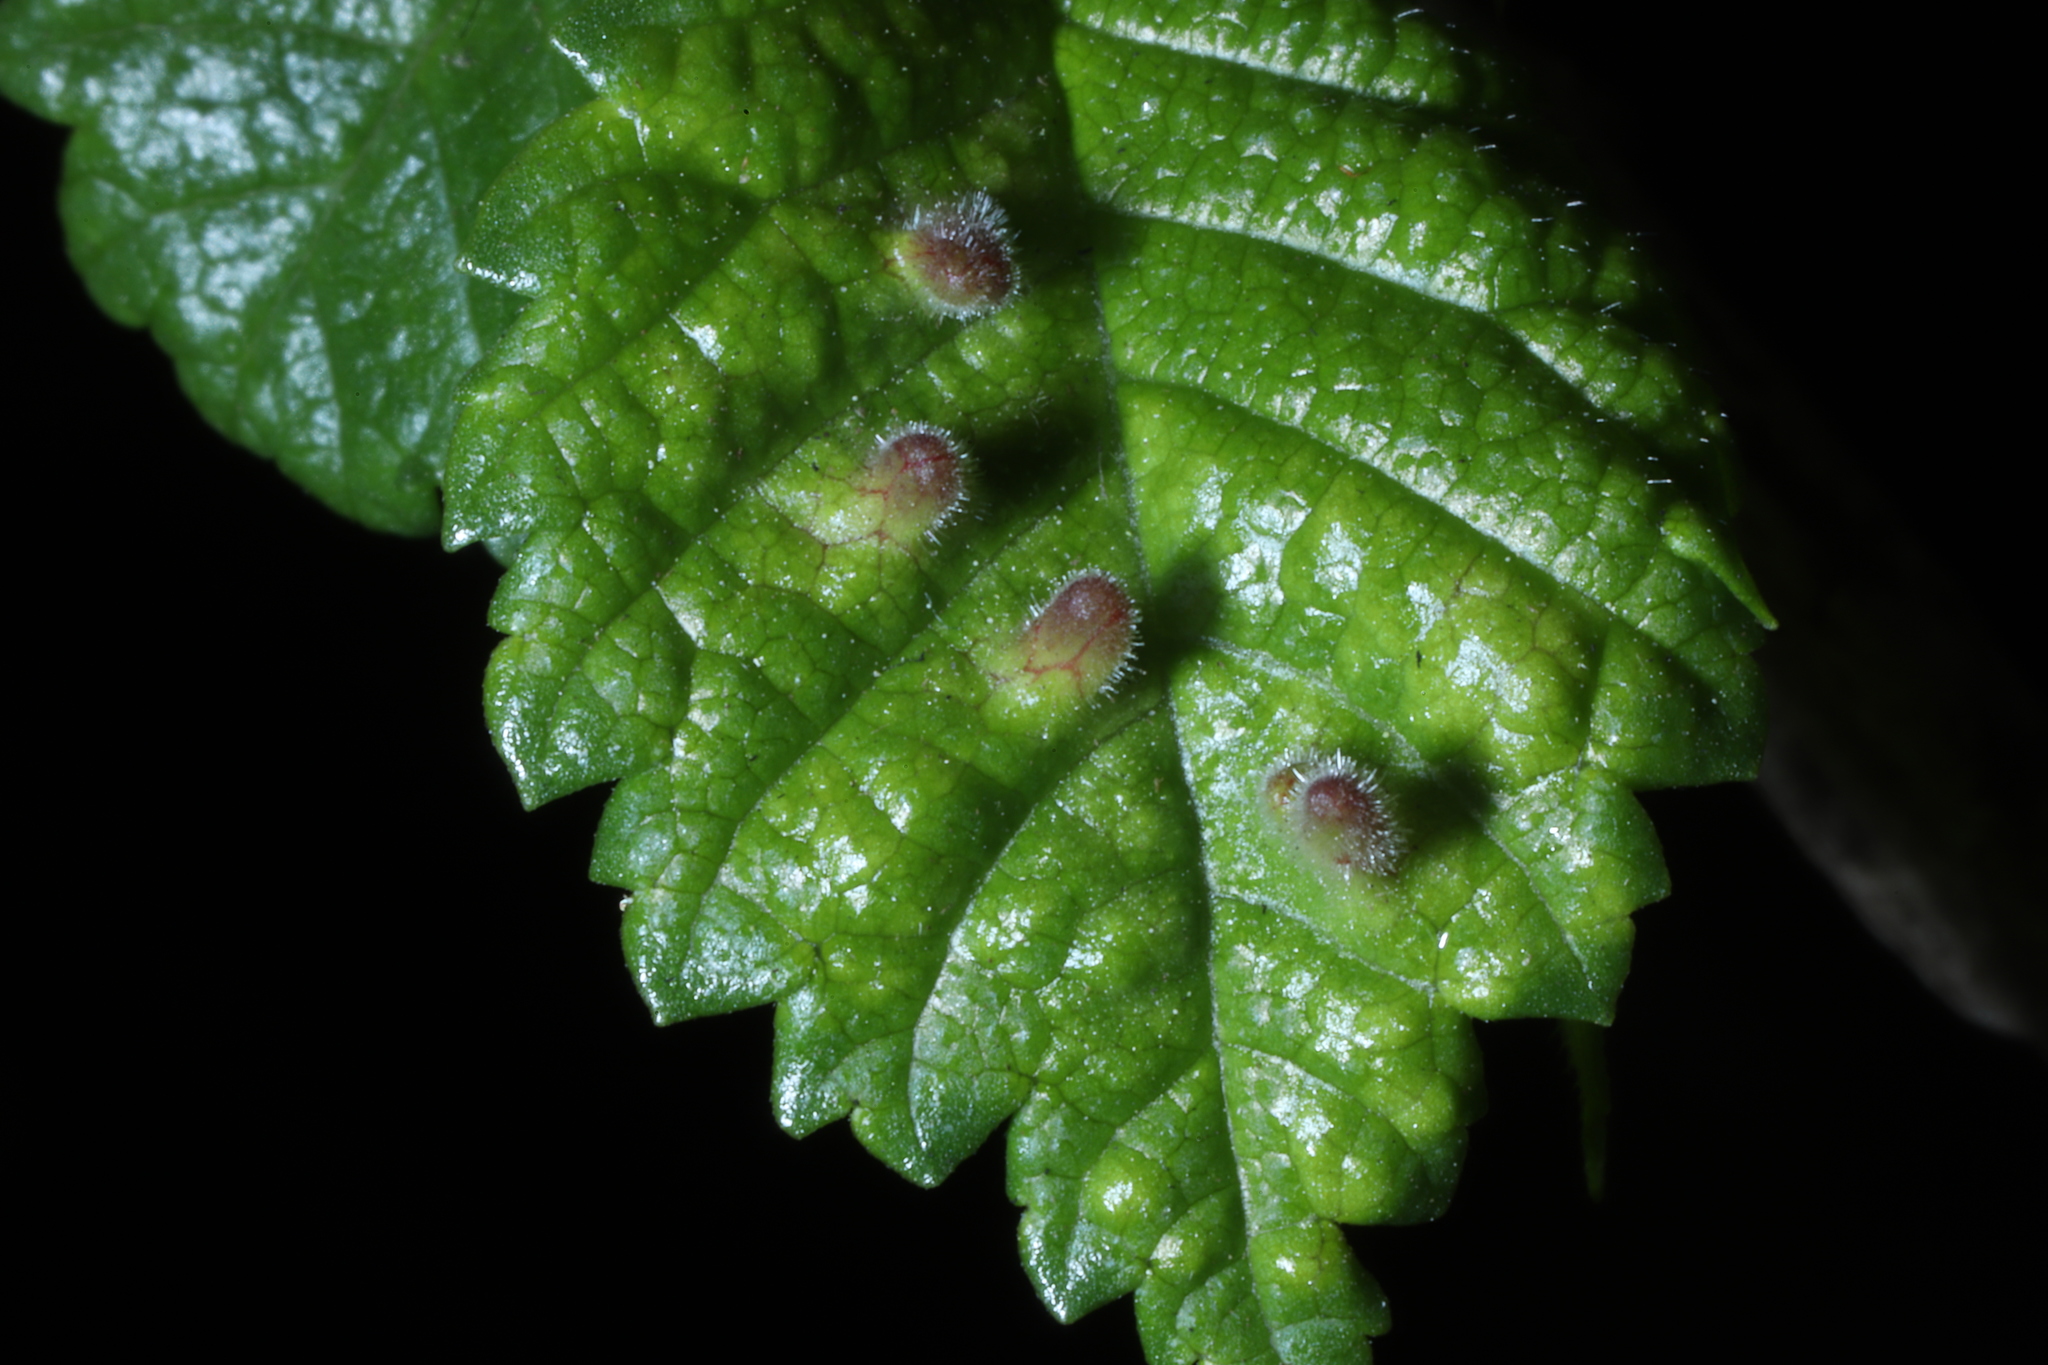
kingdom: Animalia
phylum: Arthropoda
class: Insecta
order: Hemiptera
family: Aphididae
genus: Tetraneura
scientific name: Tetraneura nigriabdominalis
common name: Aphid
